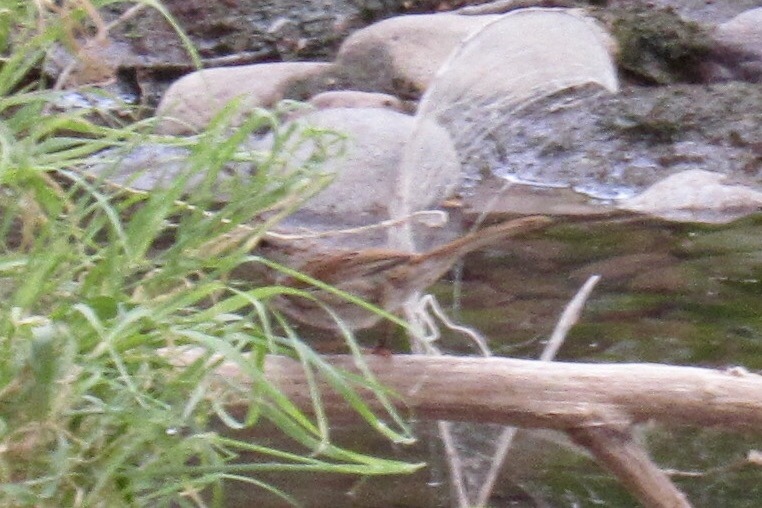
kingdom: Animalia
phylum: Chordata
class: Aves
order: Passeriformes
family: Passerellidae
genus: Melospiza
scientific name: Melospiza melodia
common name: Song sparrow
